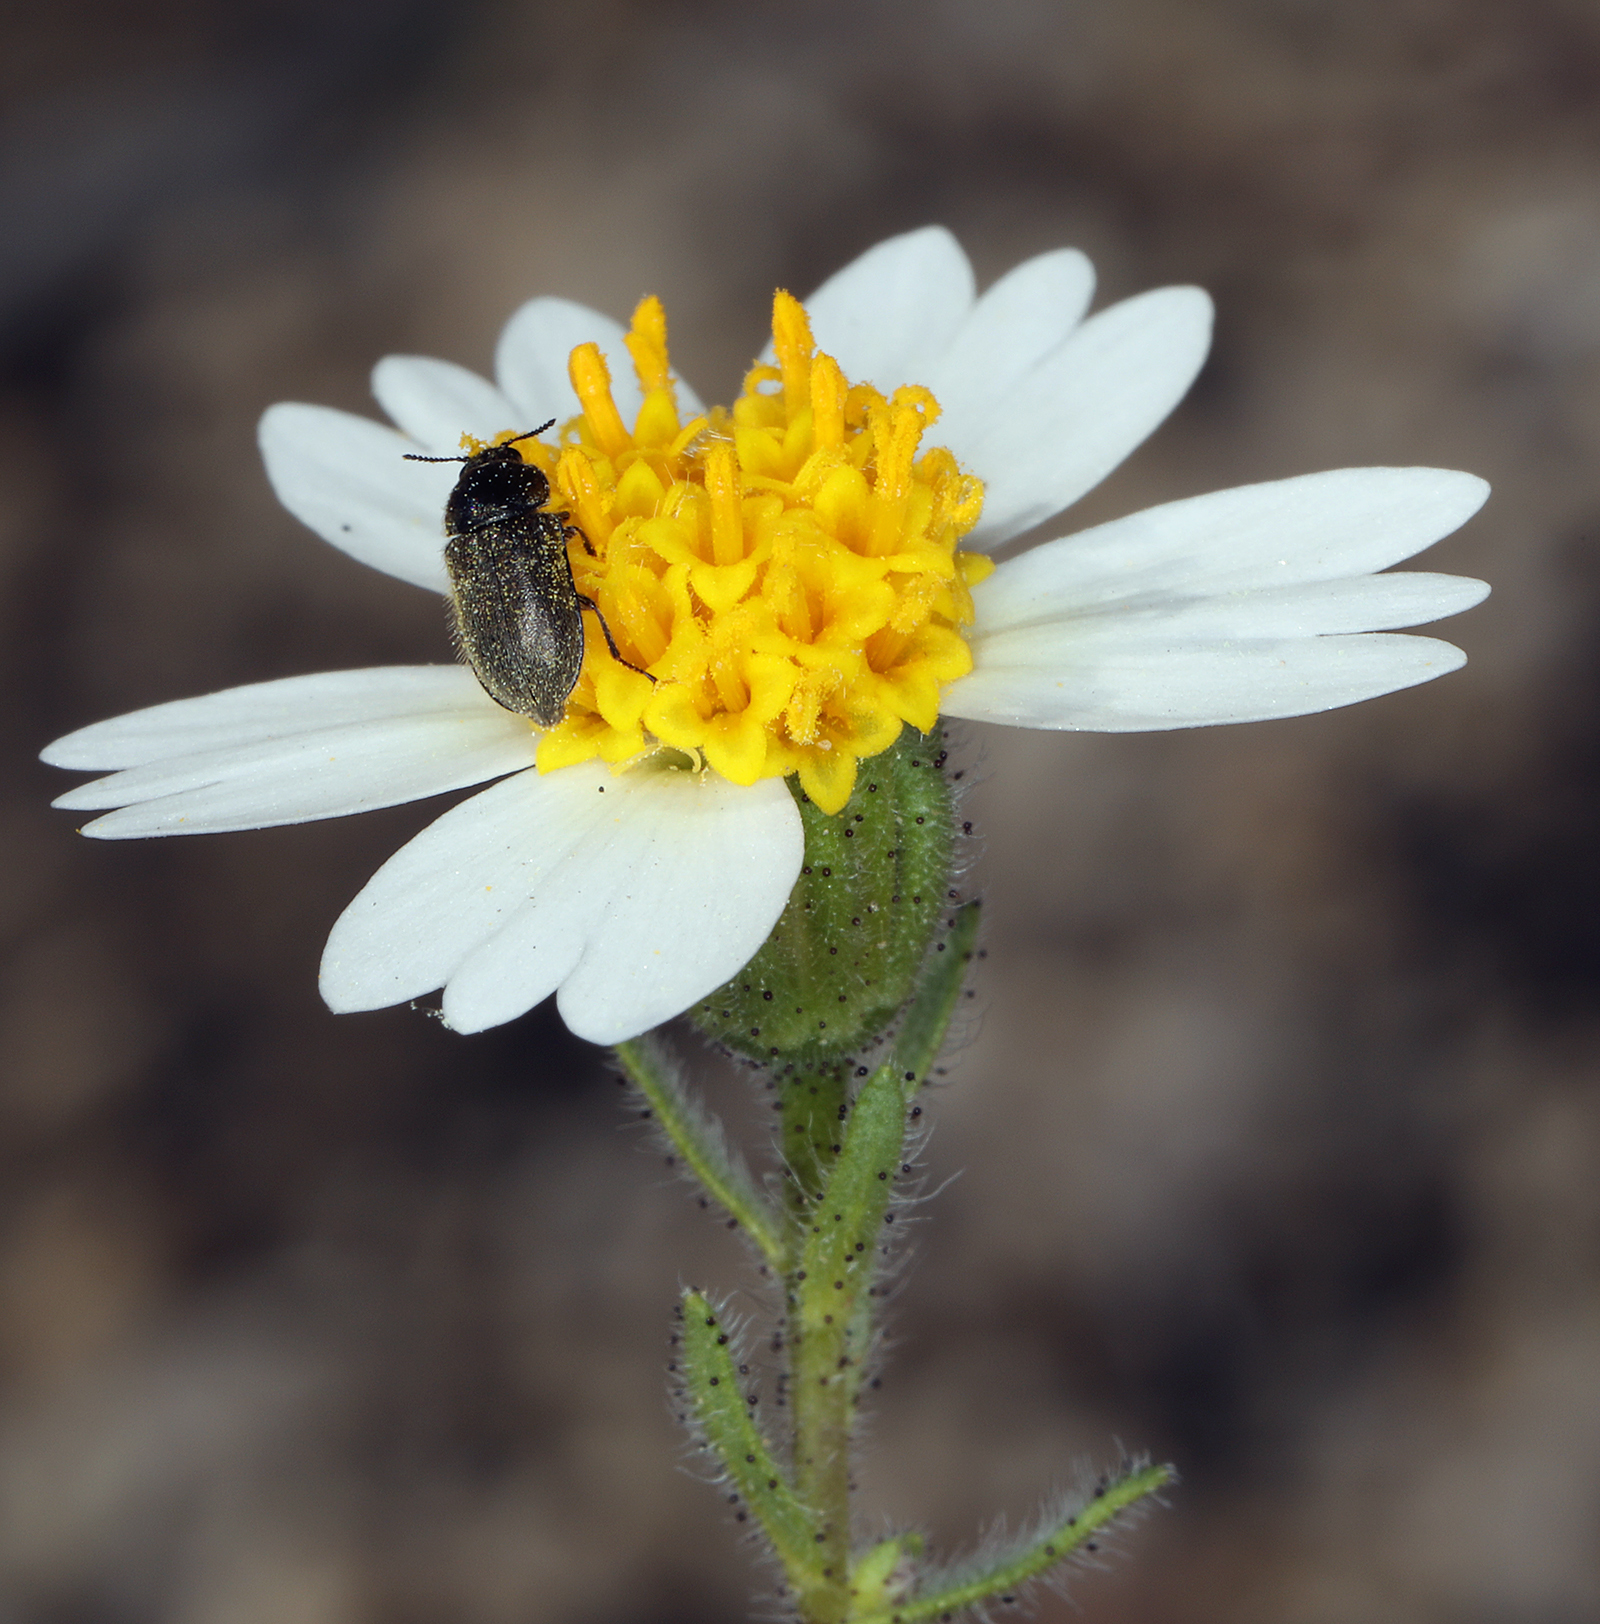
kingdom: Plantae
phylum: Tracheophyta
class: Magnoliopsida
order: Asterales
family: Asteraceae
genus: Layia
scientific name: Layia glandulosa
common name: White layia
